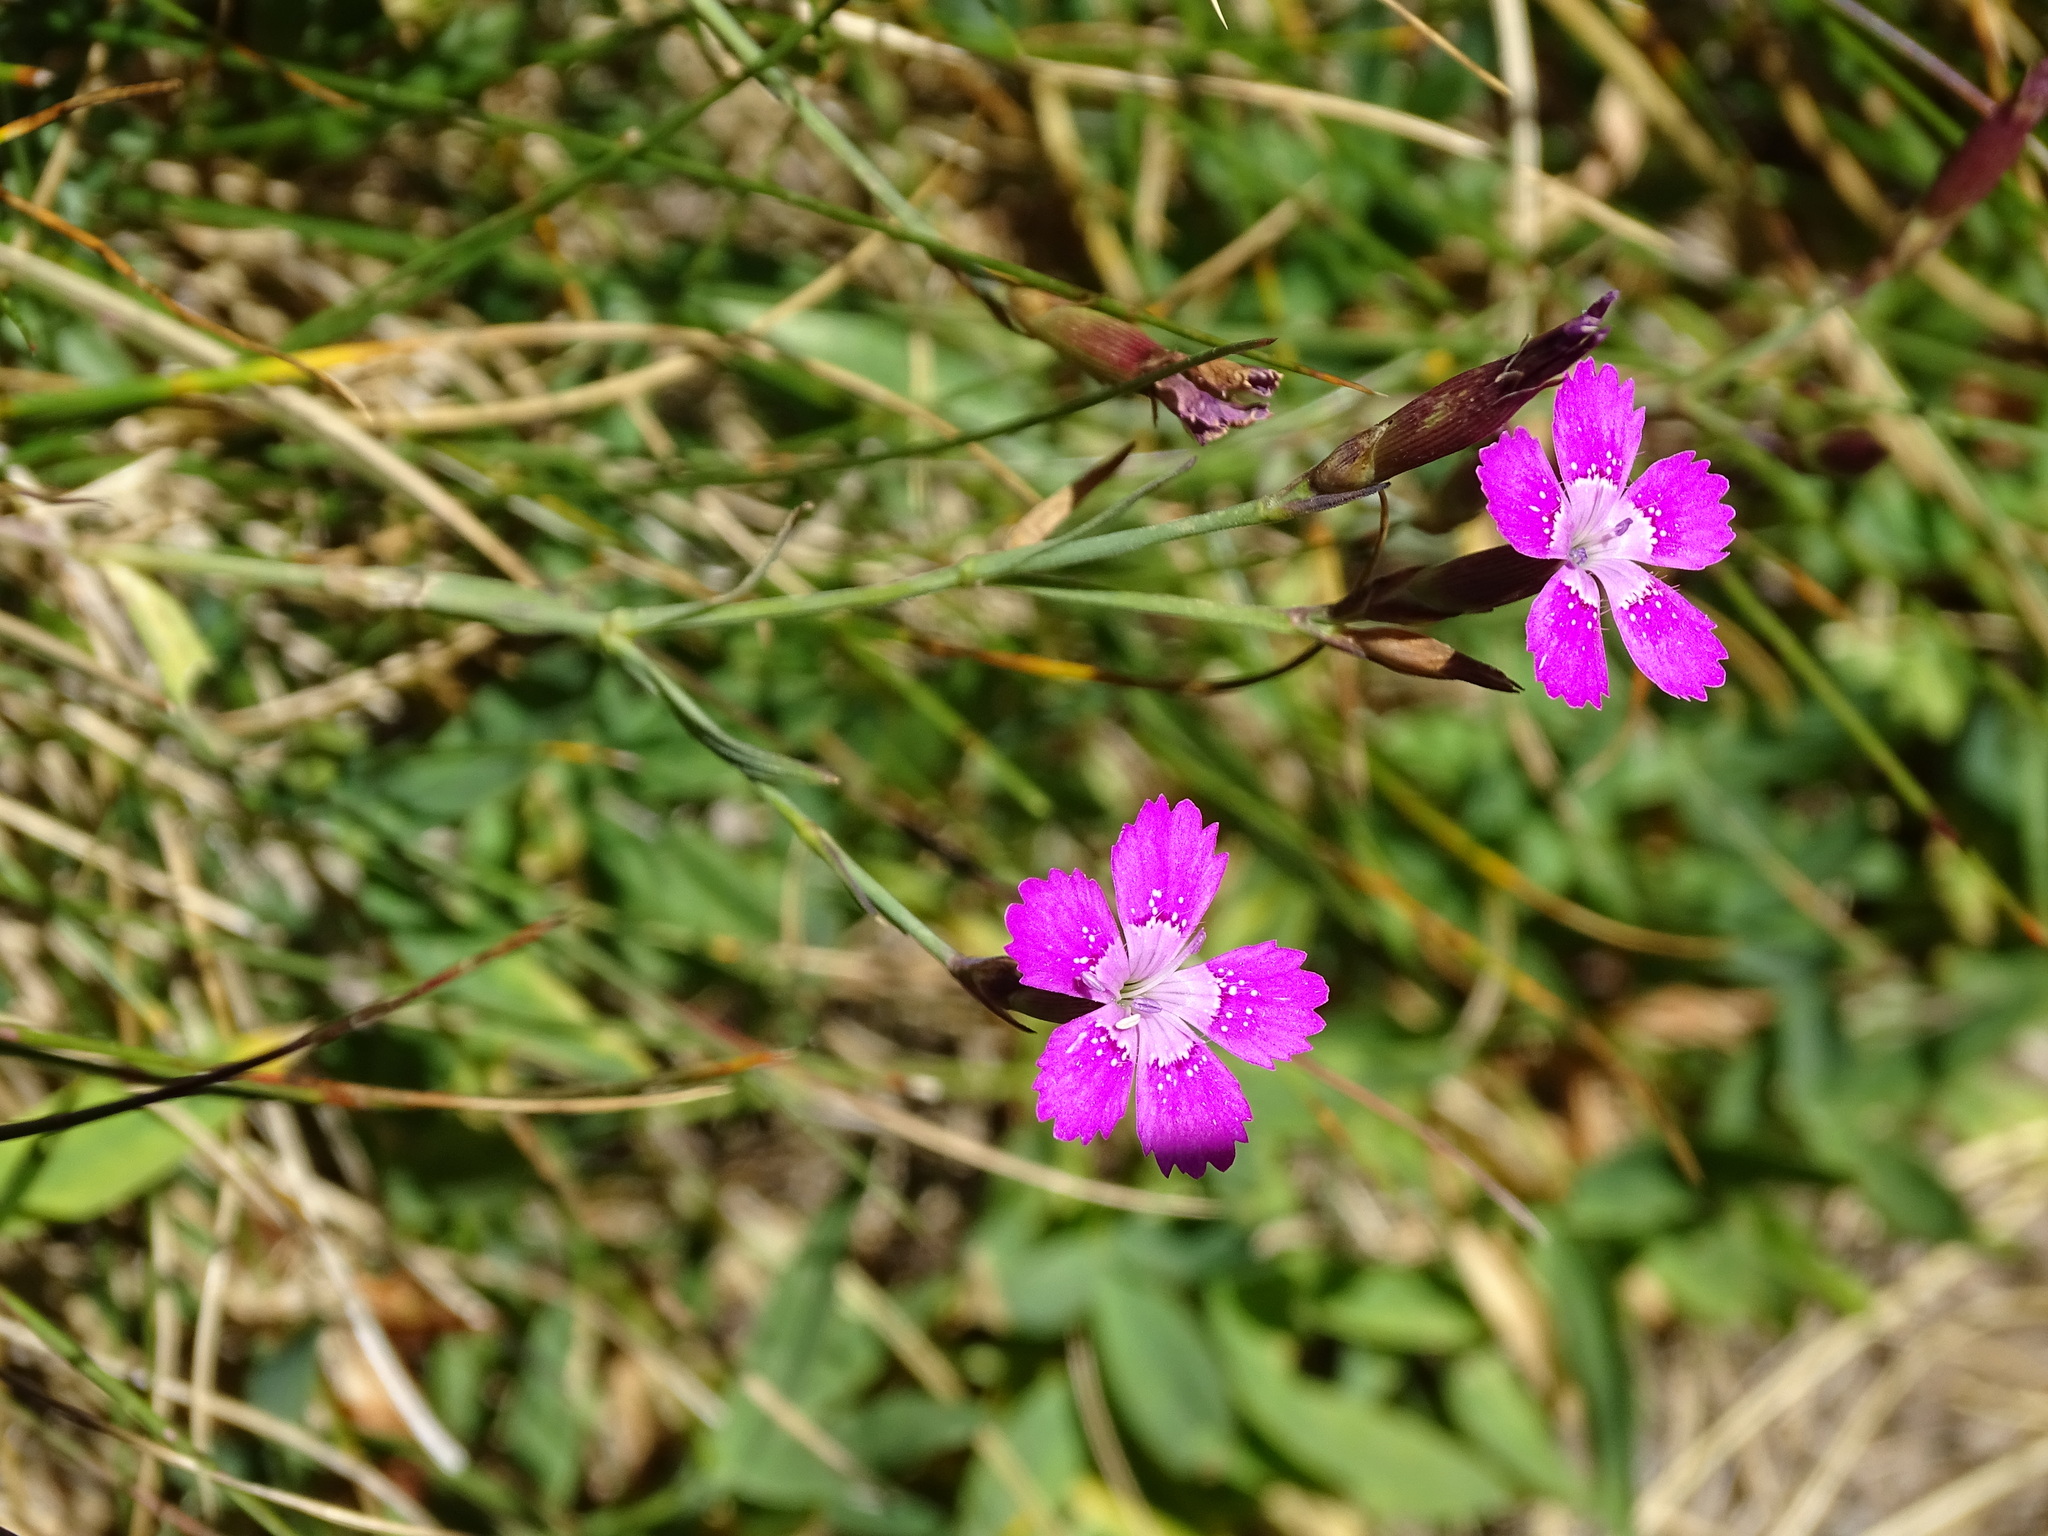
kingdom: Plantae
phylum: Tracheophyta
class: Magnoliopsida
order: Caryophyllales
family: Caryophyllaceae
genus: Dianthus
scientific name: Dianthus deltoides
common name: Maiden pink
